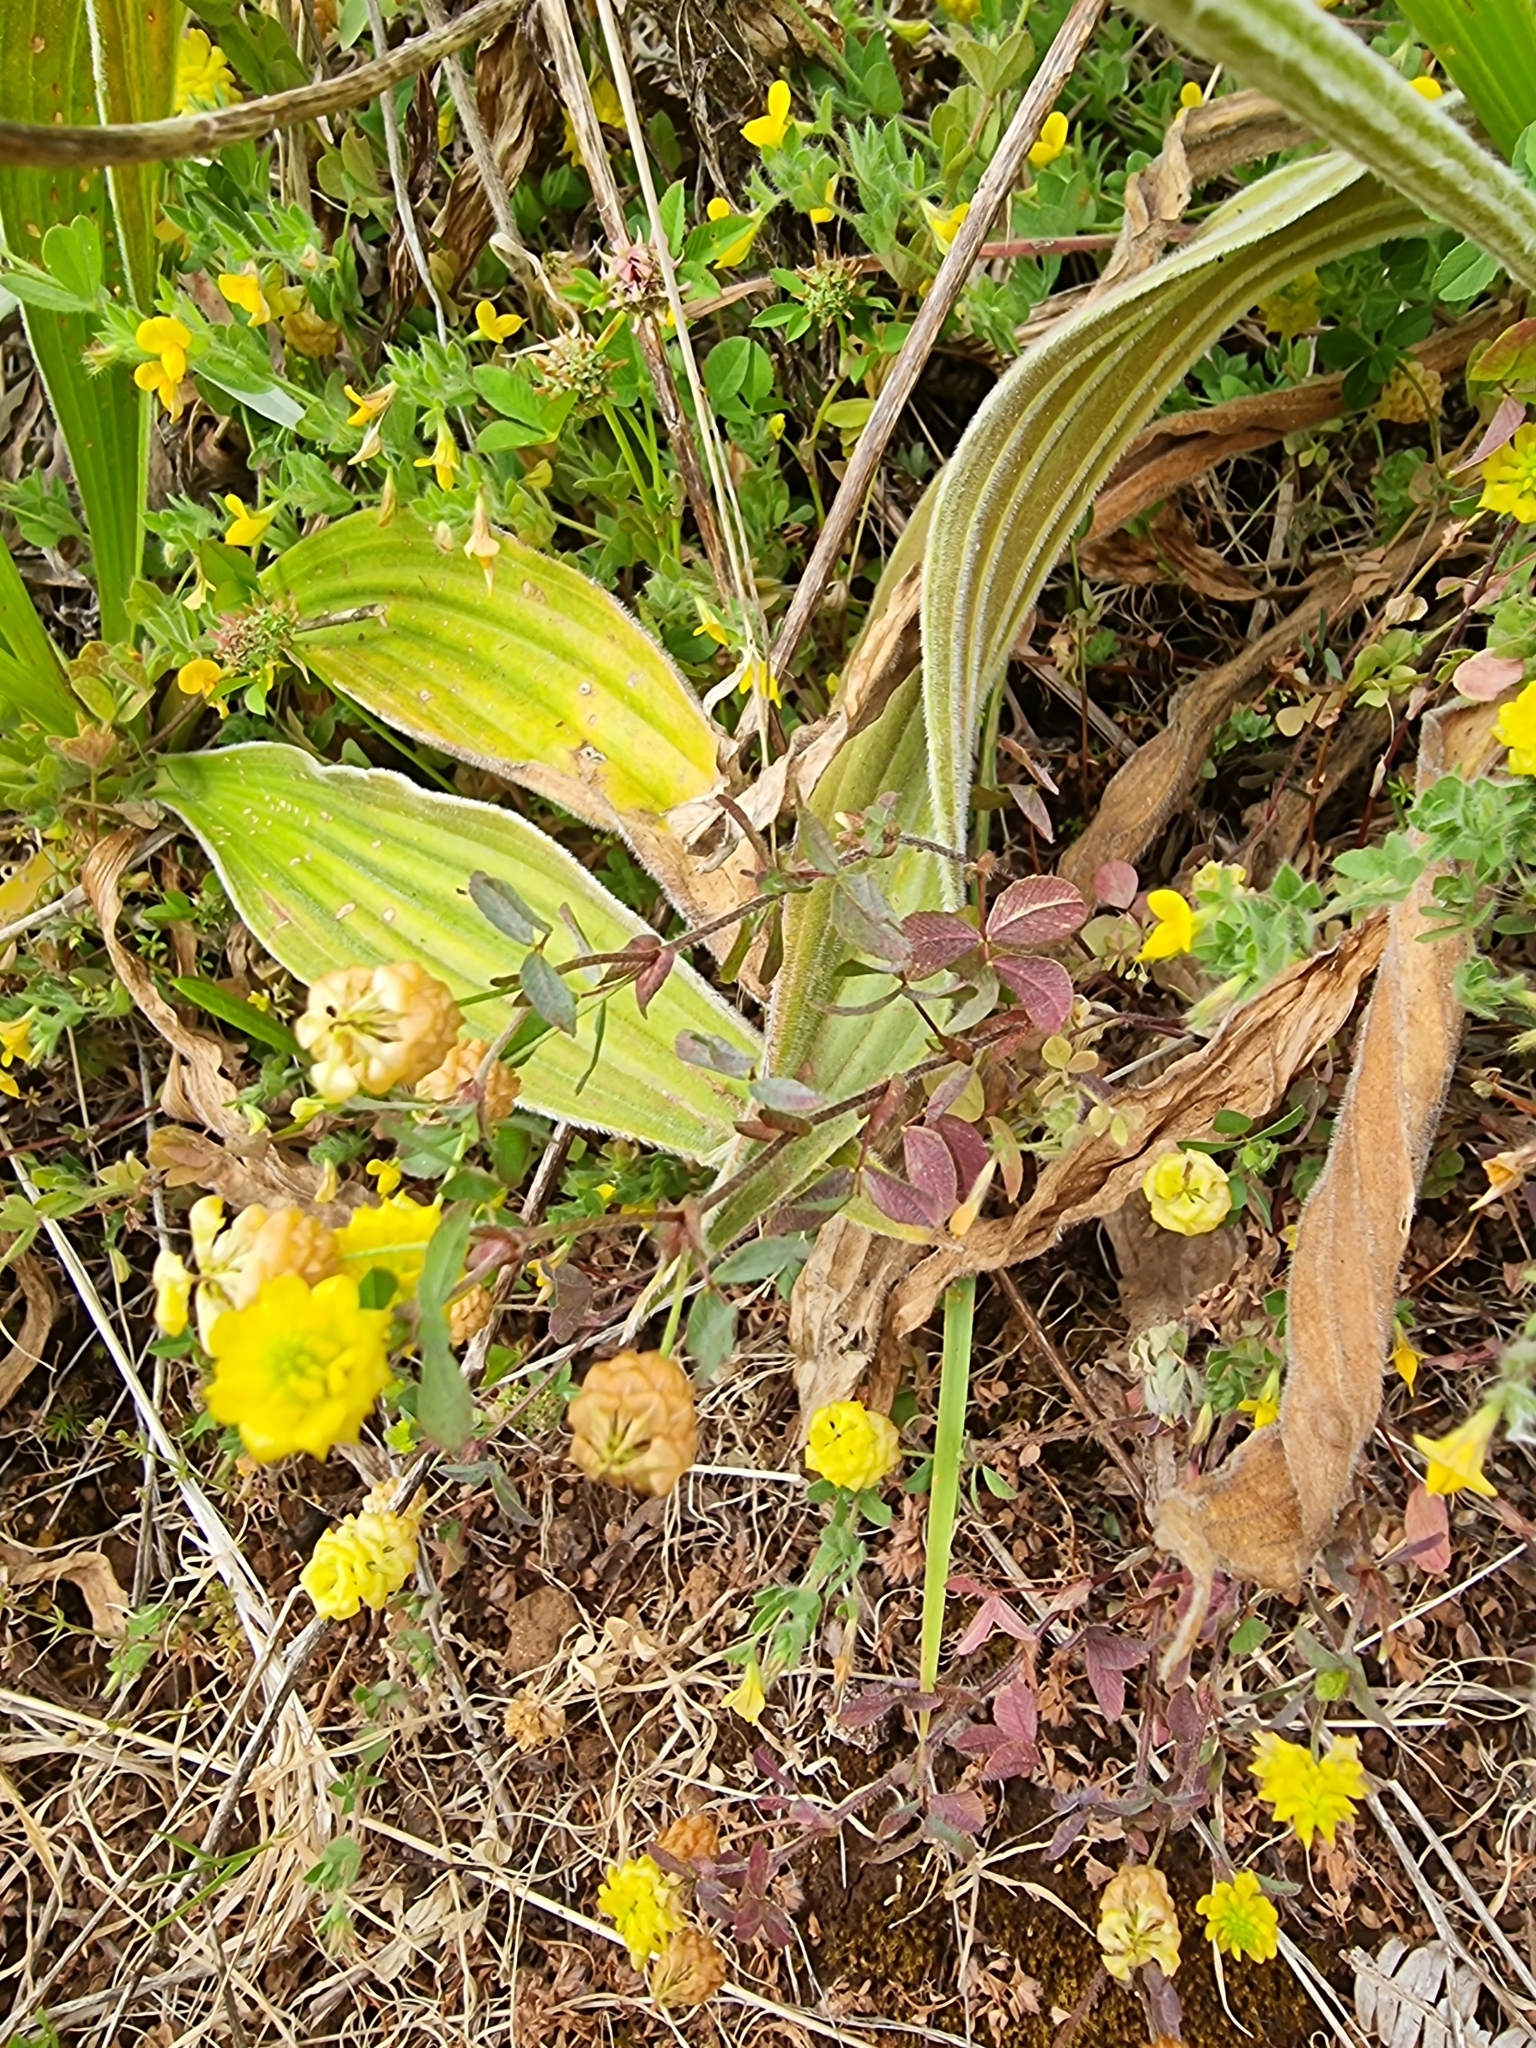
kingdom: Plantae
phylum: Tracheophyta
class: Magnoliopsida
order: Fabales
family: Fabaceae
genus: Trifolium
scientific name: Trifolium campestre
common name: Field clover
